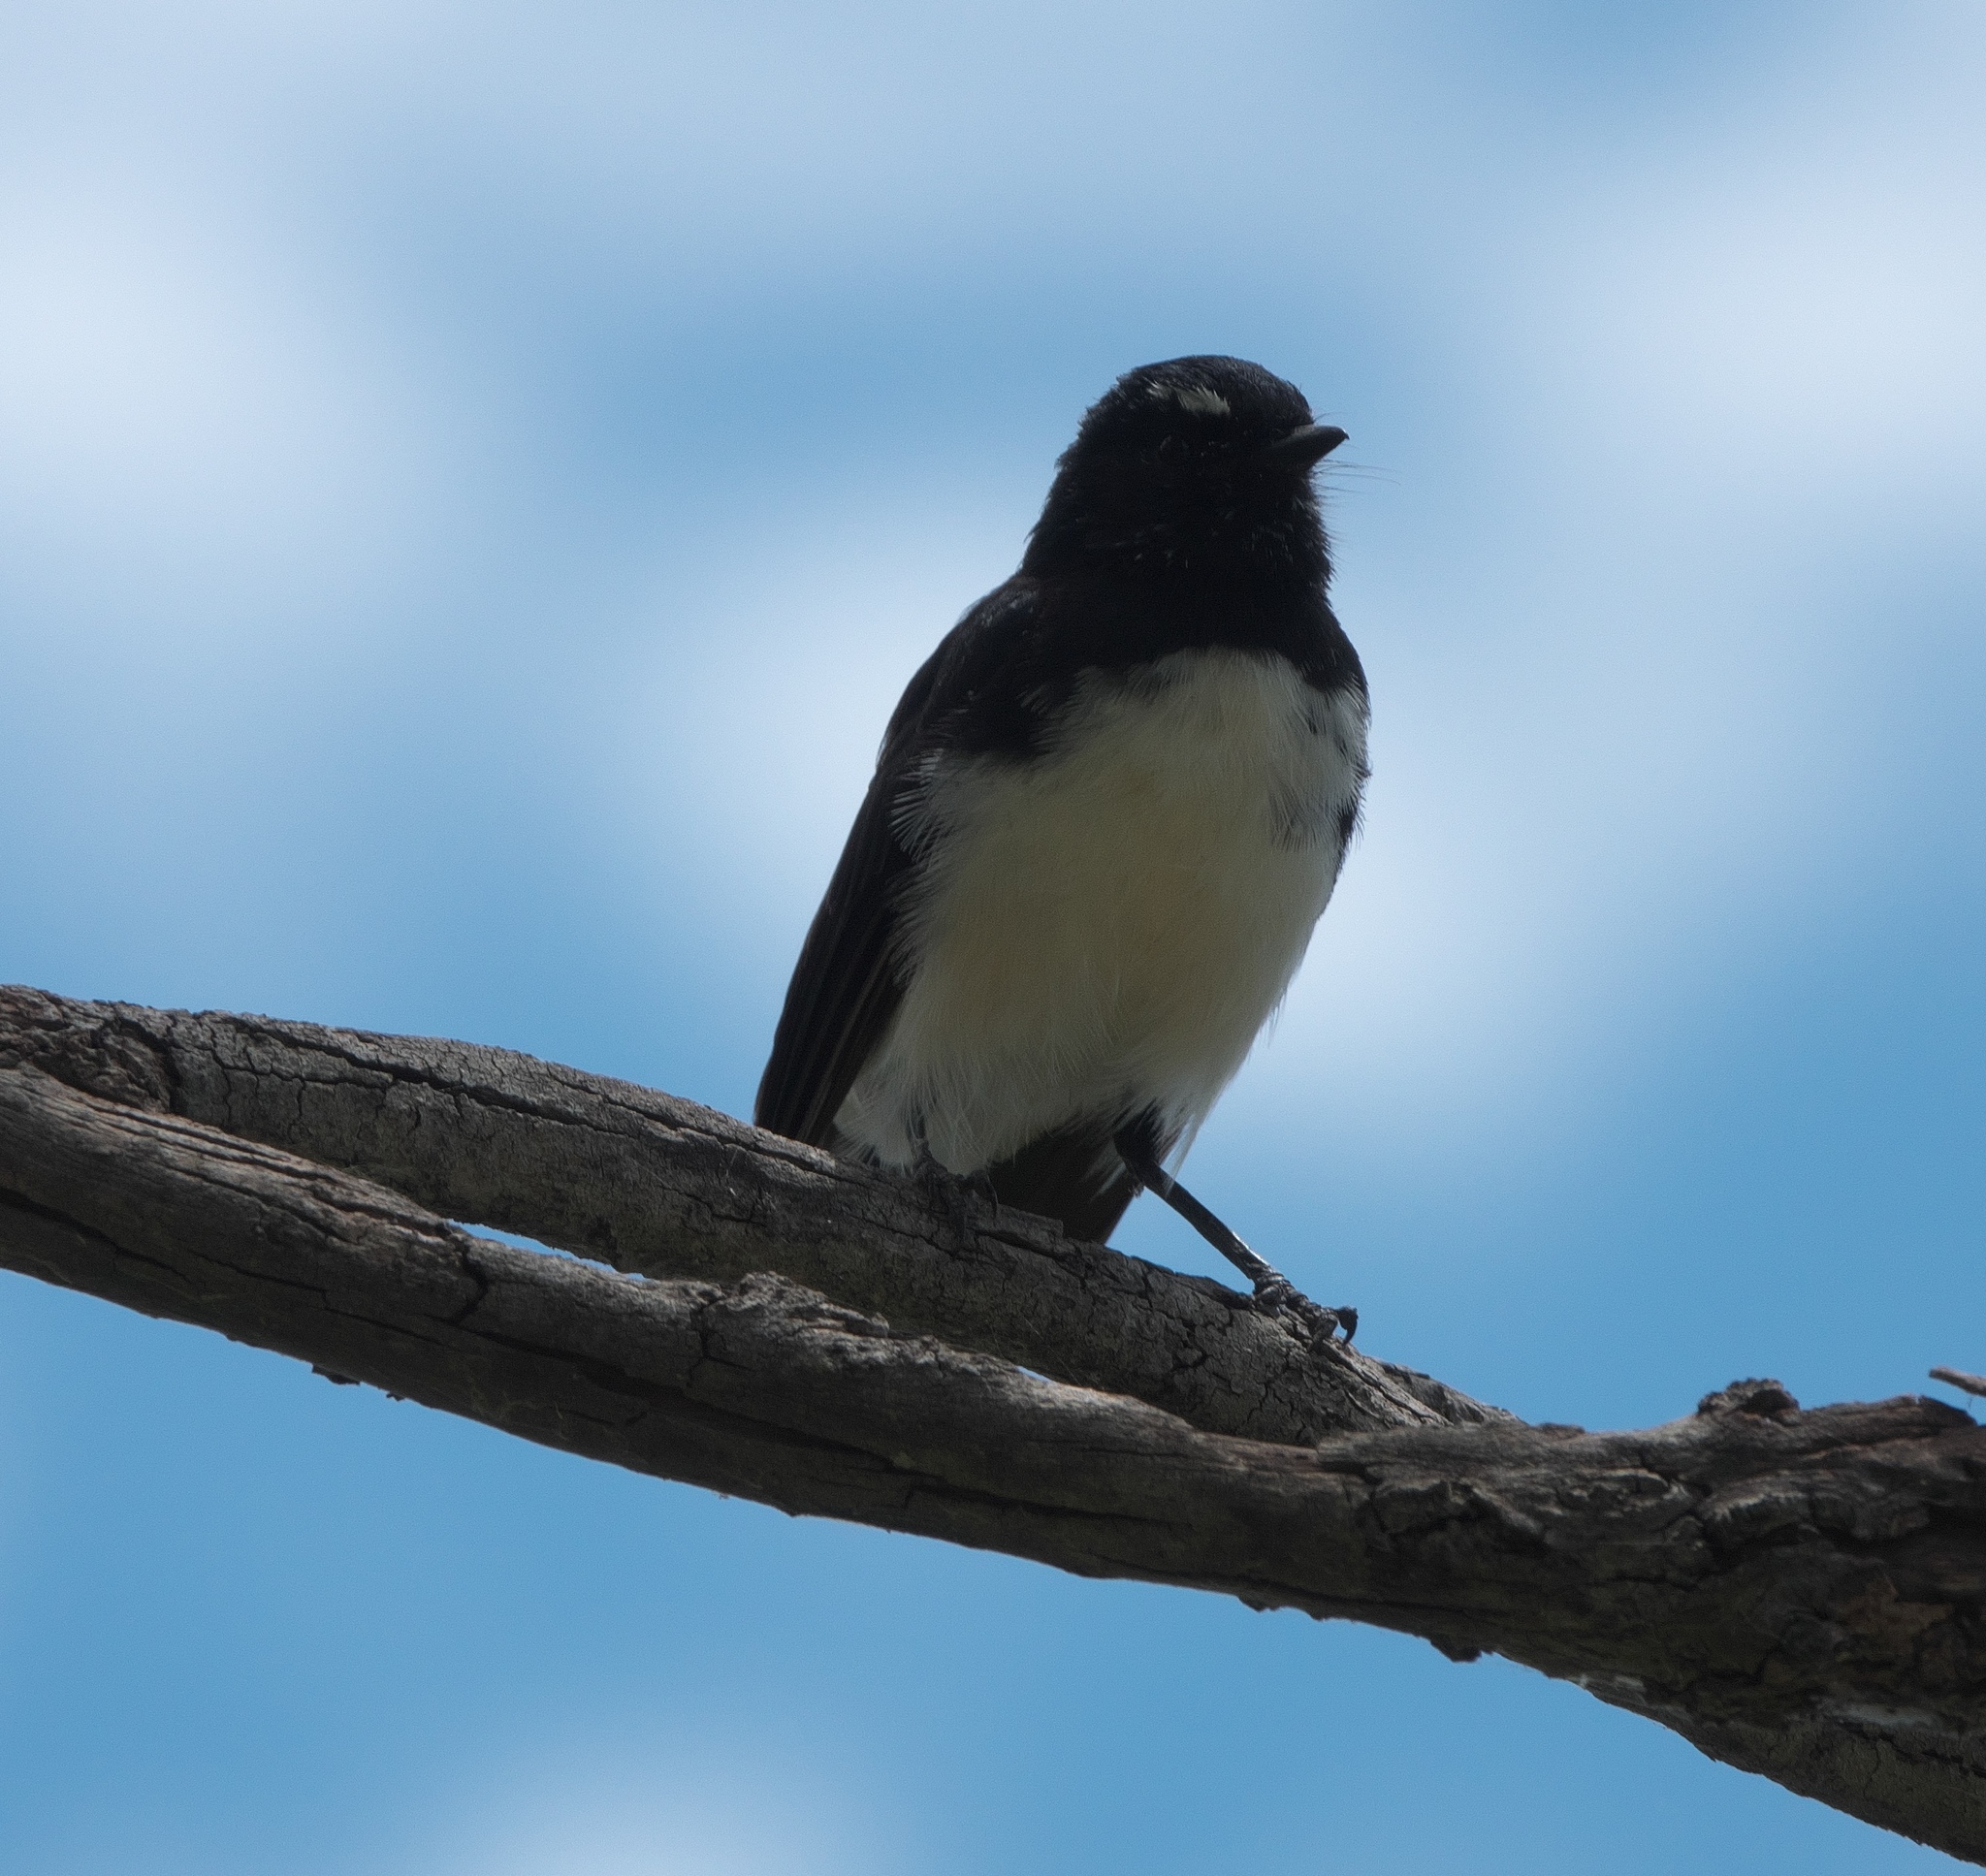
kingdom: Animalia
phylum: Chordata
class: Aves
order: Passeriformes
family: Rhipiduridae
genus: Rhipidura
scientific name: Rhipidura leucophrys
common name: Willie wagtail
